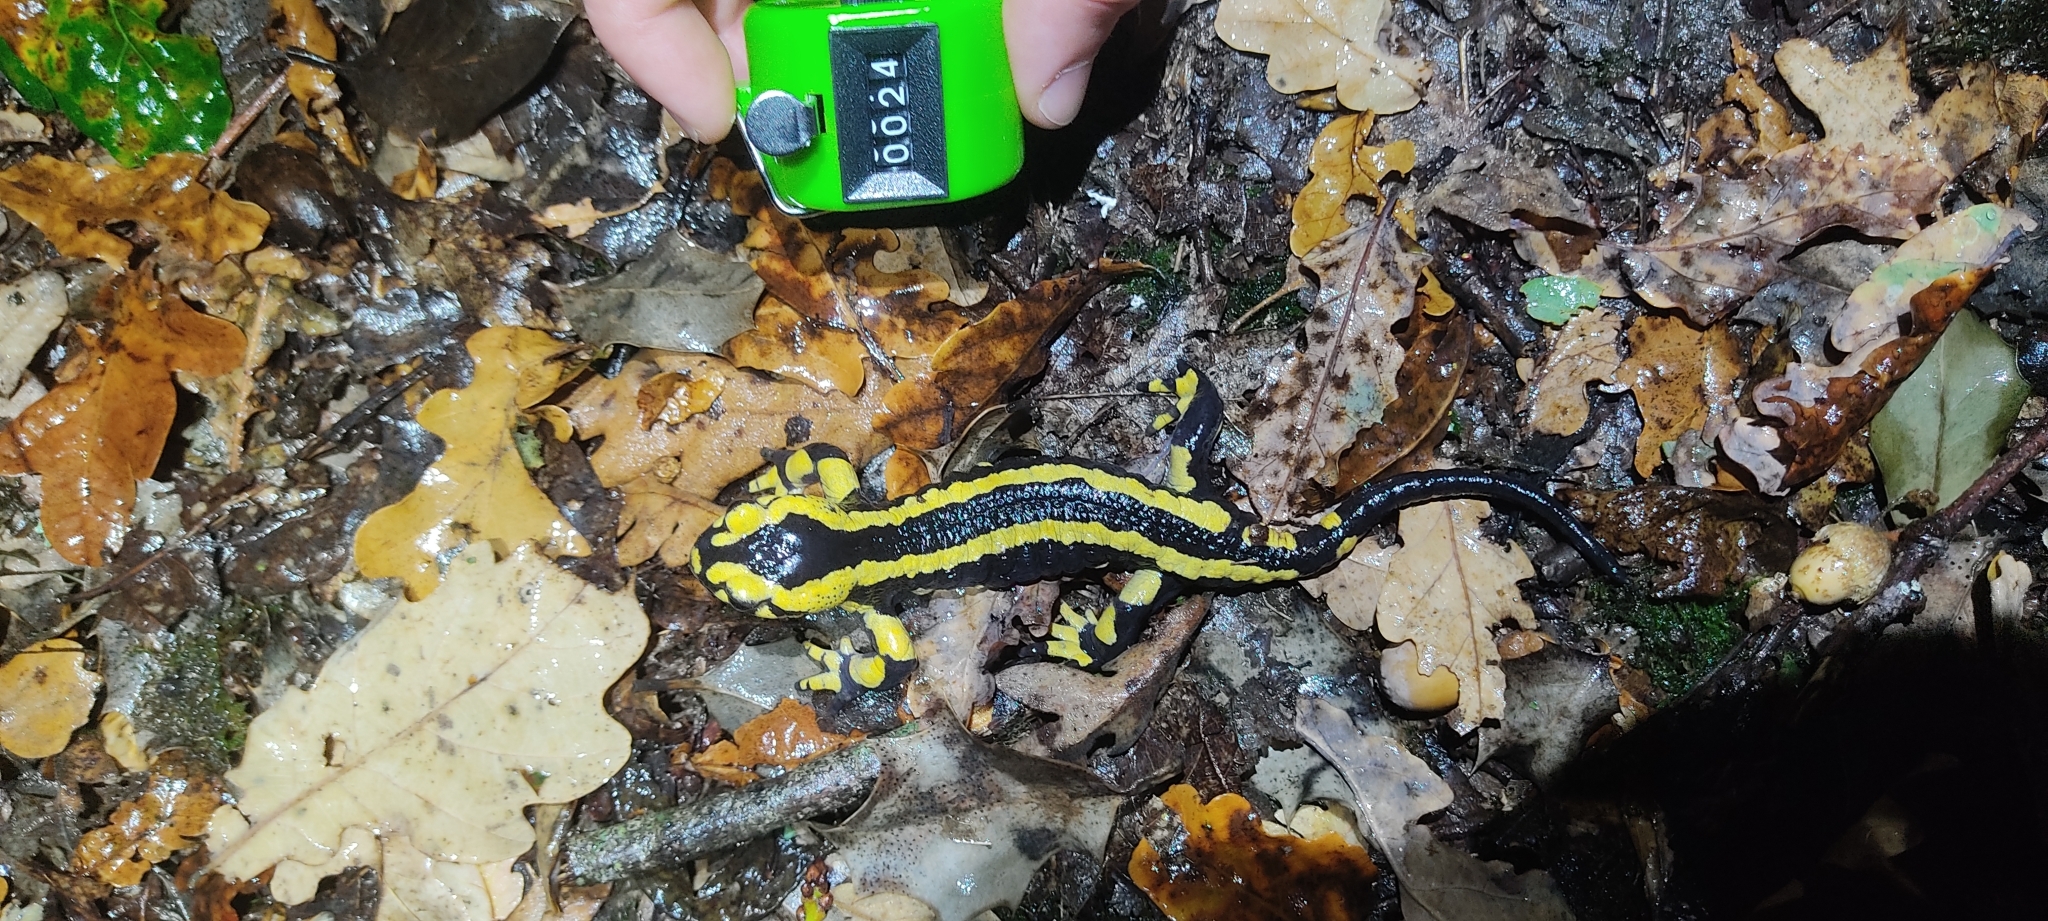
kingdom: Animalia
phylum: Chordata
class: Amphibia
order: Caudata
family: Salamandridae
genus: Salamandra
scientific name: Salamandra salamandra
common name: Fire salamander
